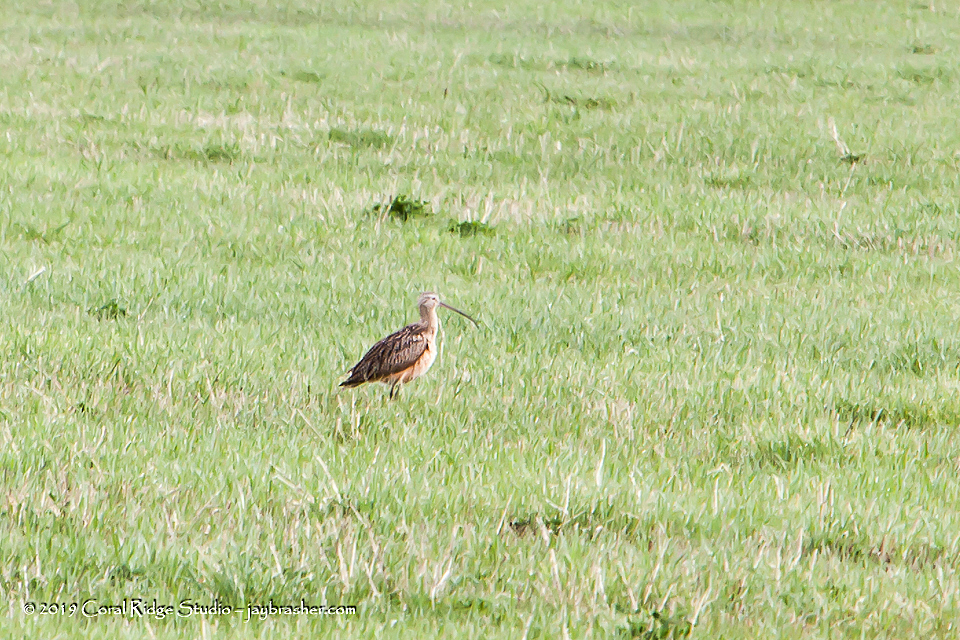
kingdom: Animalia
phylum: Chordata
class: Aves
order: Charadriiformes
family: Scolopacidae
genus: Numenius
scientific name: Numenius americanus
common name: Long-billed curlew
